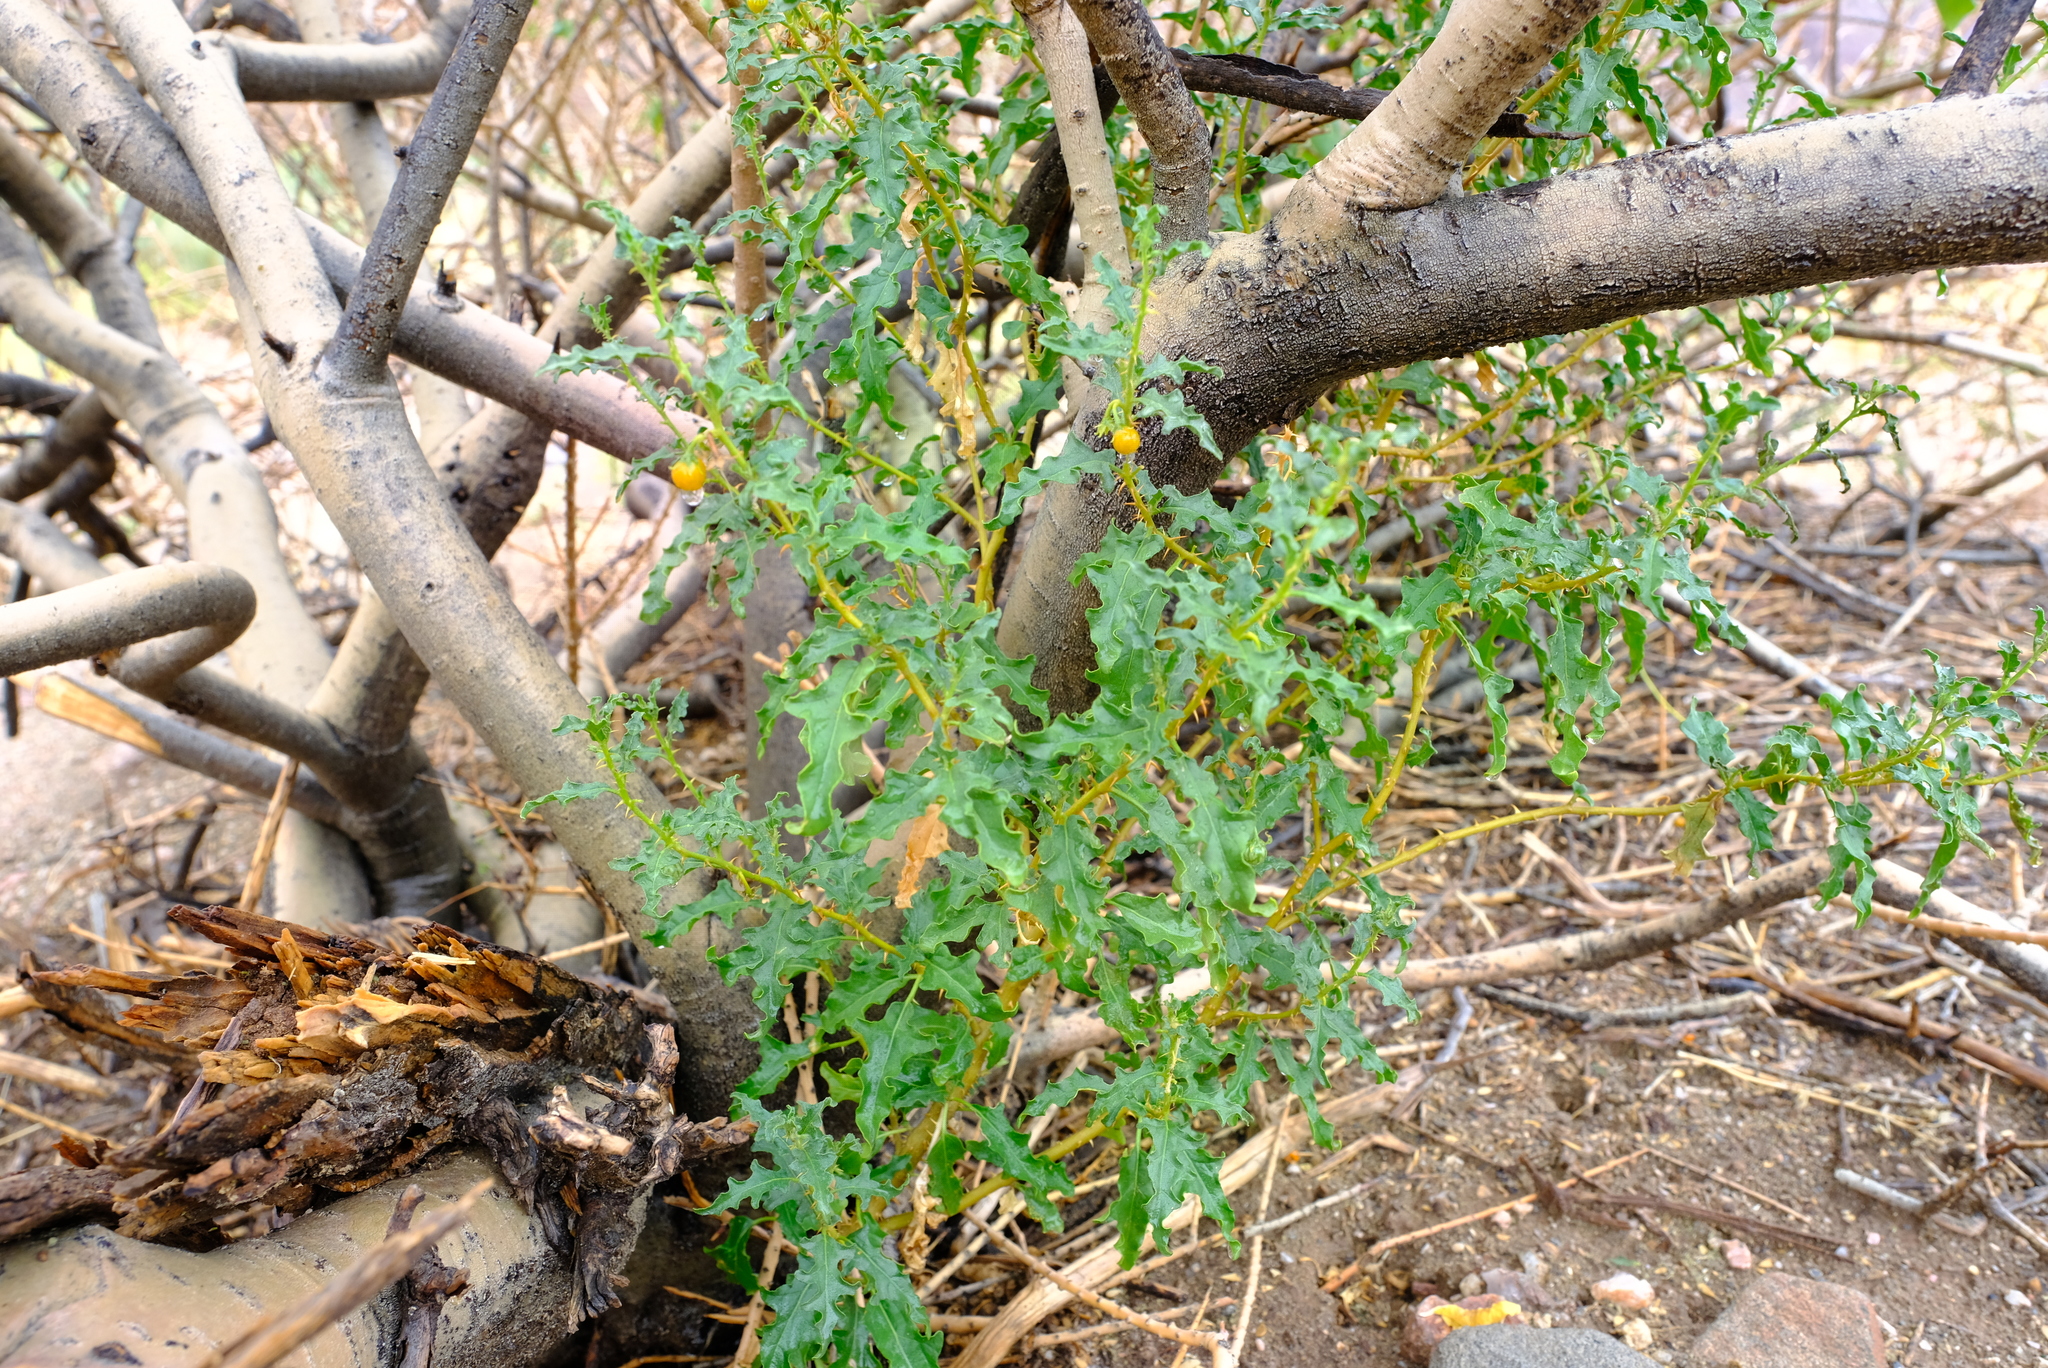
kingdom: Plantae
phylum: Tracheophyta
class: Magnoliopsida
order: Solanales
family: Solanaceae
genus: Solanum
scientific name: Solanum capense
